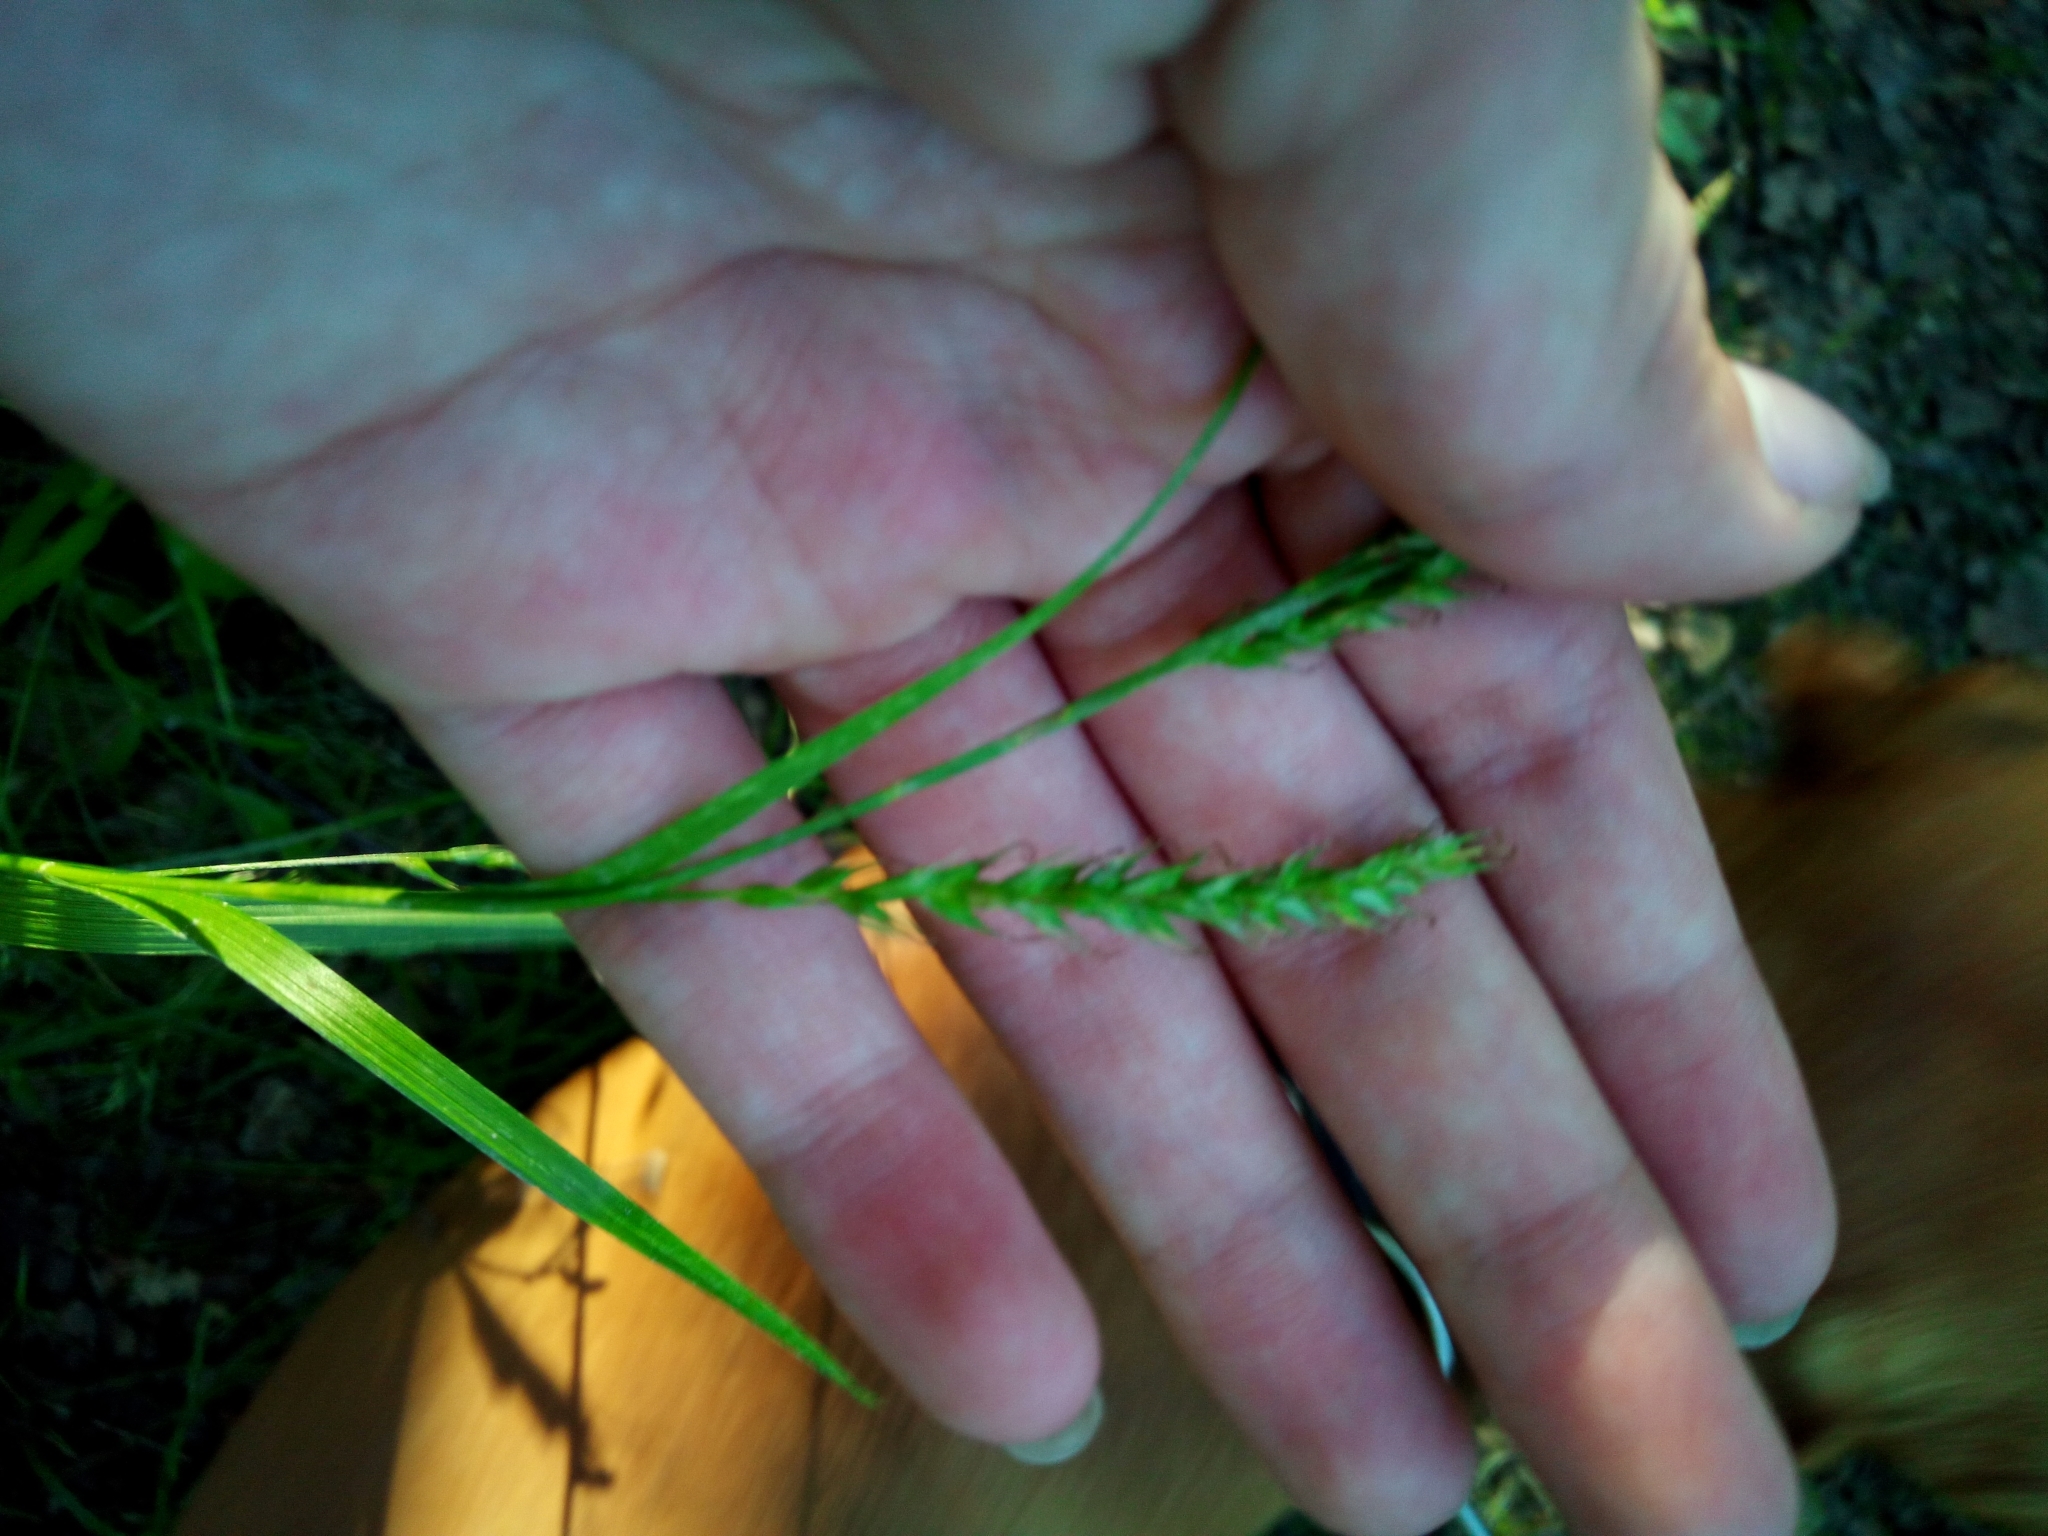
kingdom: Plantae
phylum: Tracheophyta
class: Liliopsida
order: Poales
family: Cyperaceae
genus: Carex
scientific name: Carex sylvatica
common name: Wood-sedge
